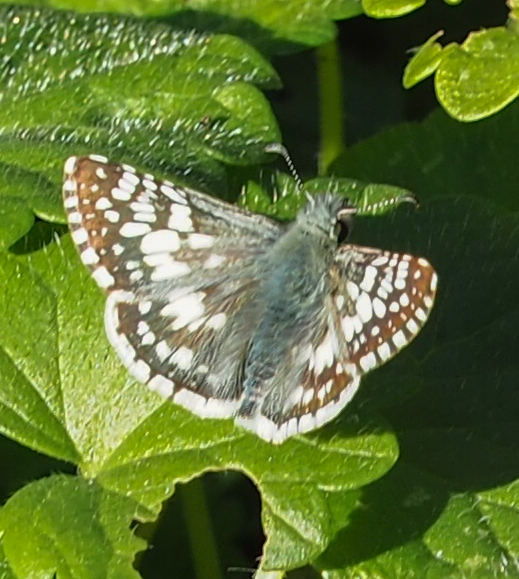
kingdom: Animalia
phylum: Arthropoda
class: Insecta
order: Lepidoptera
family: Hesperiidae
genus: Burnsius
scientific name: Burnsius communis
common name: Common checkered-skipper
